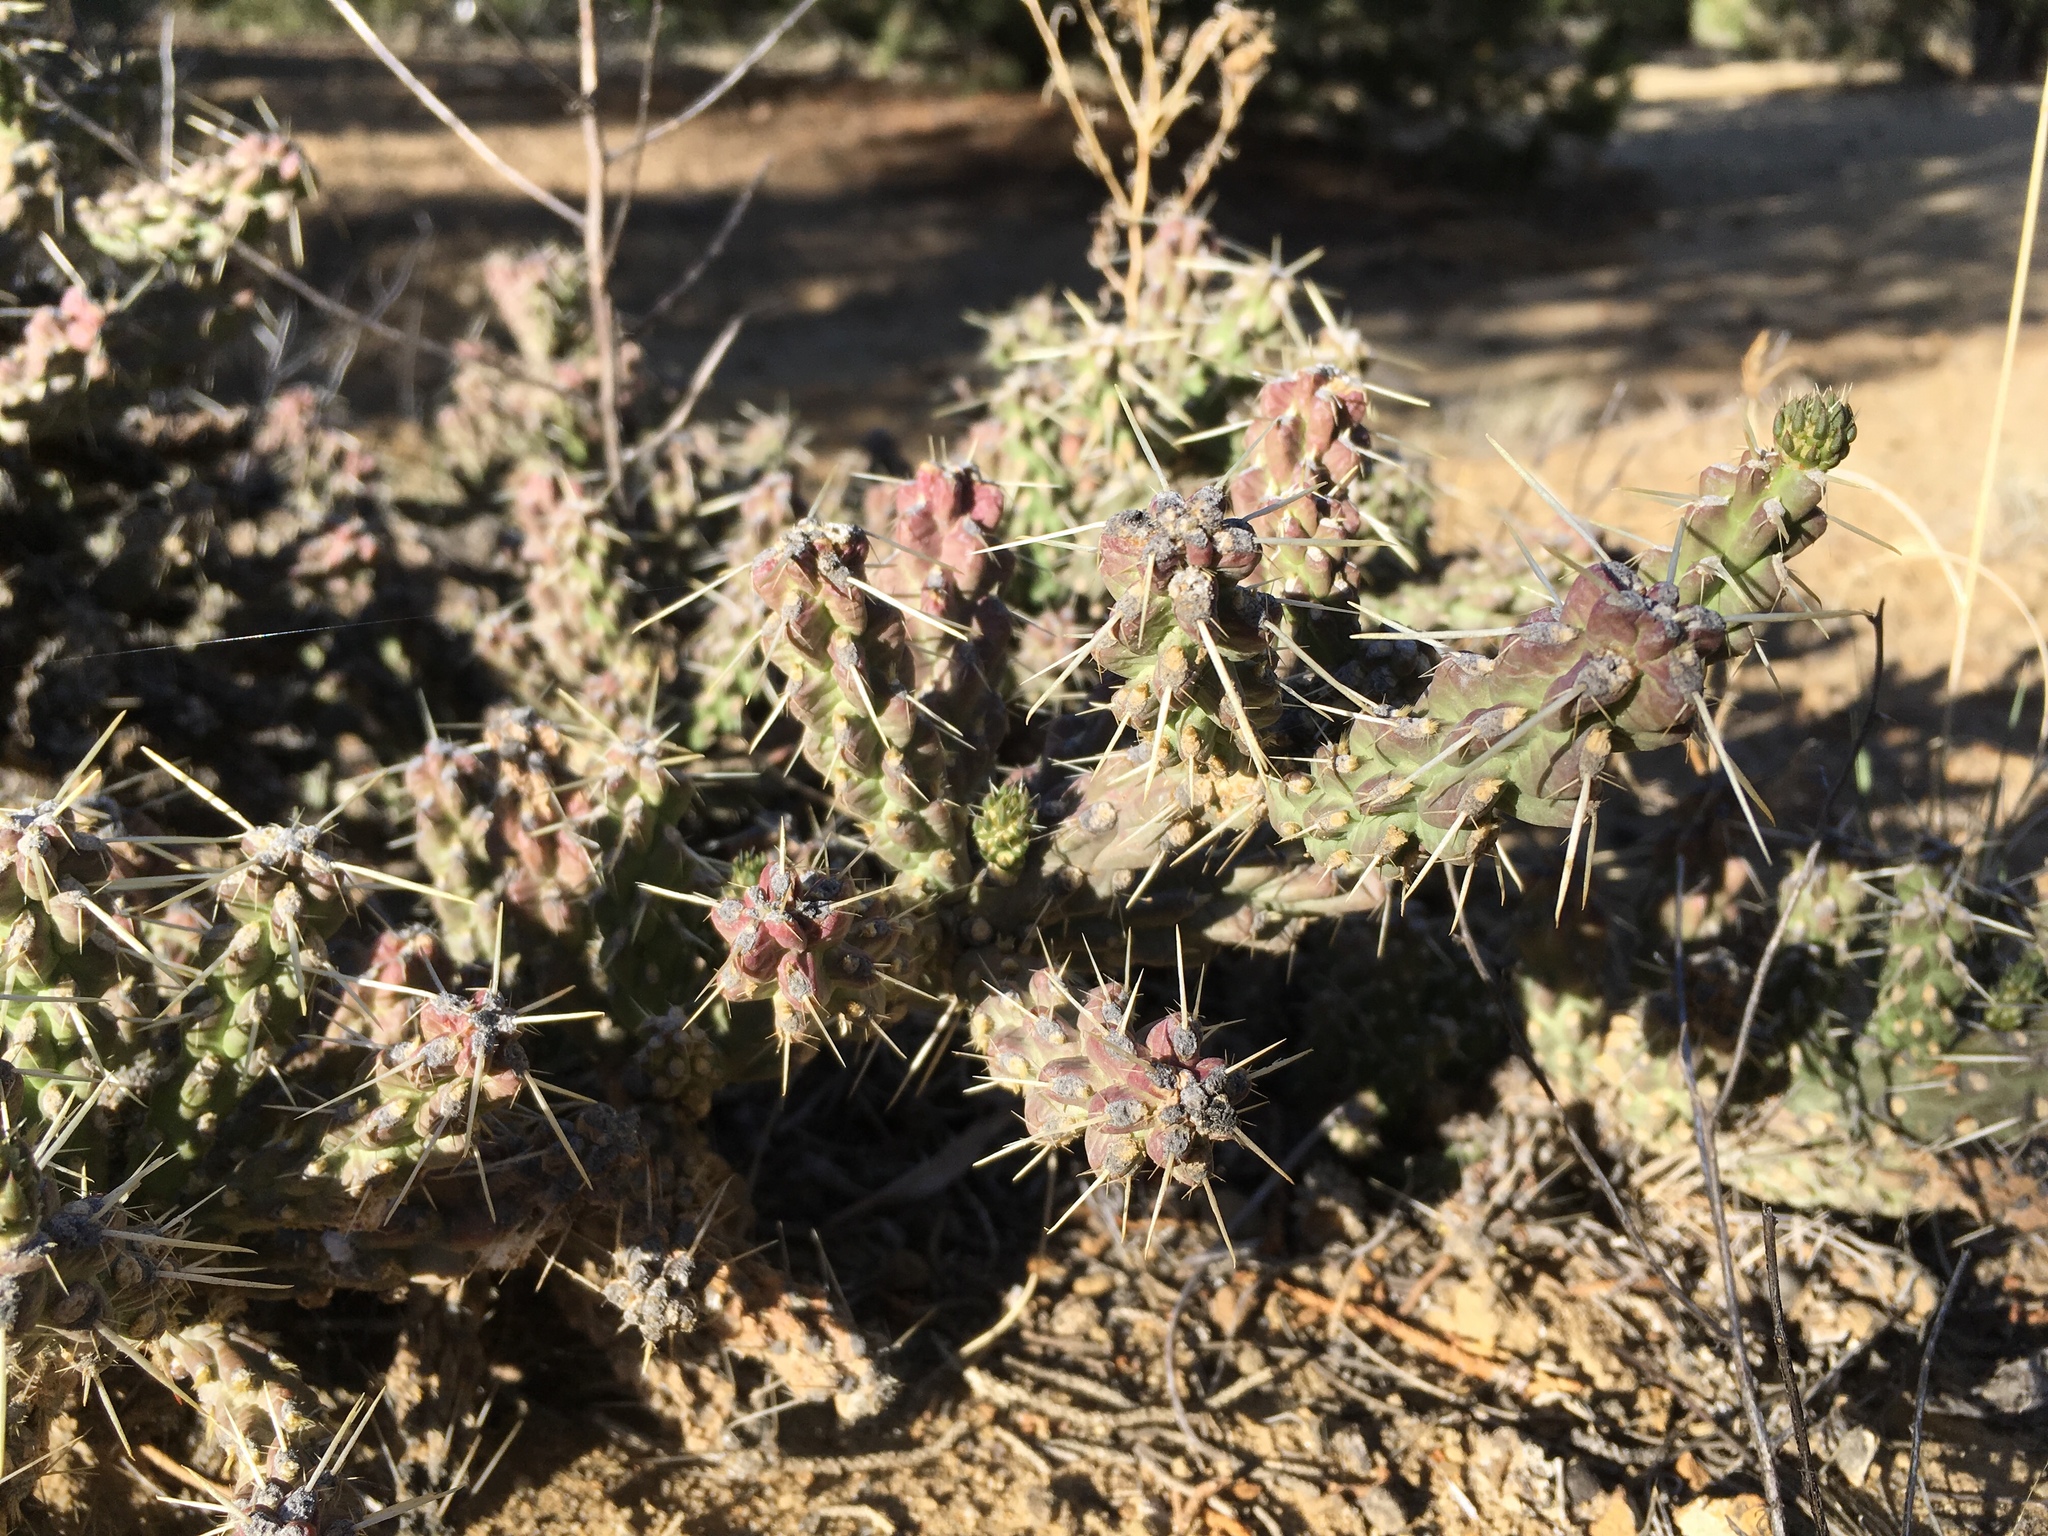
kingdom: Plantae
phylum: Tracheophyta
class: Magnoliopsida
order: Caryophyllales
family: Cactaceae
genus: Cylindropuntia
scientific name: Cylindropuntia whipplei
